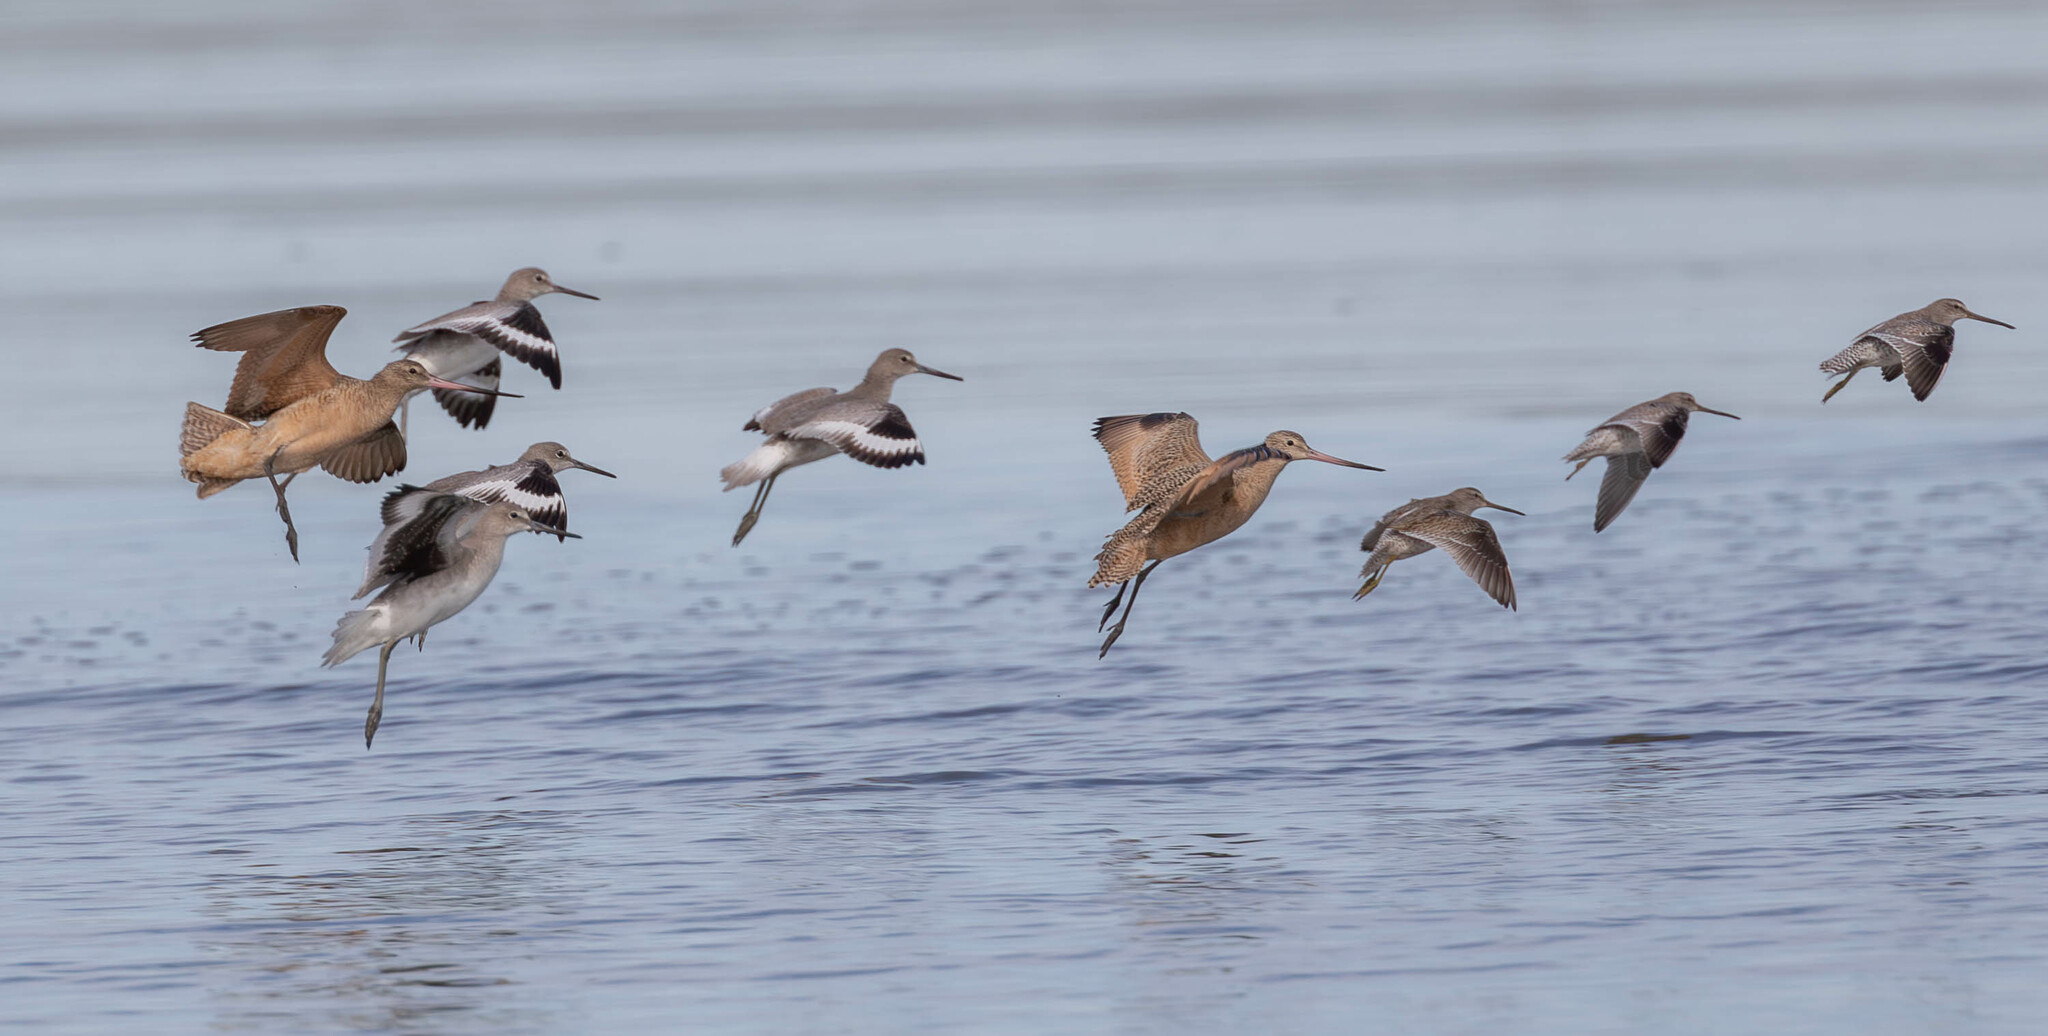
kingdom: Animalia
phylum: Chordata
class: Aves
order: Charadriiformes
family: Scolopacidae
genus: Limosa
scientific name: Limosa fedoa
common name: Marbled godwit
